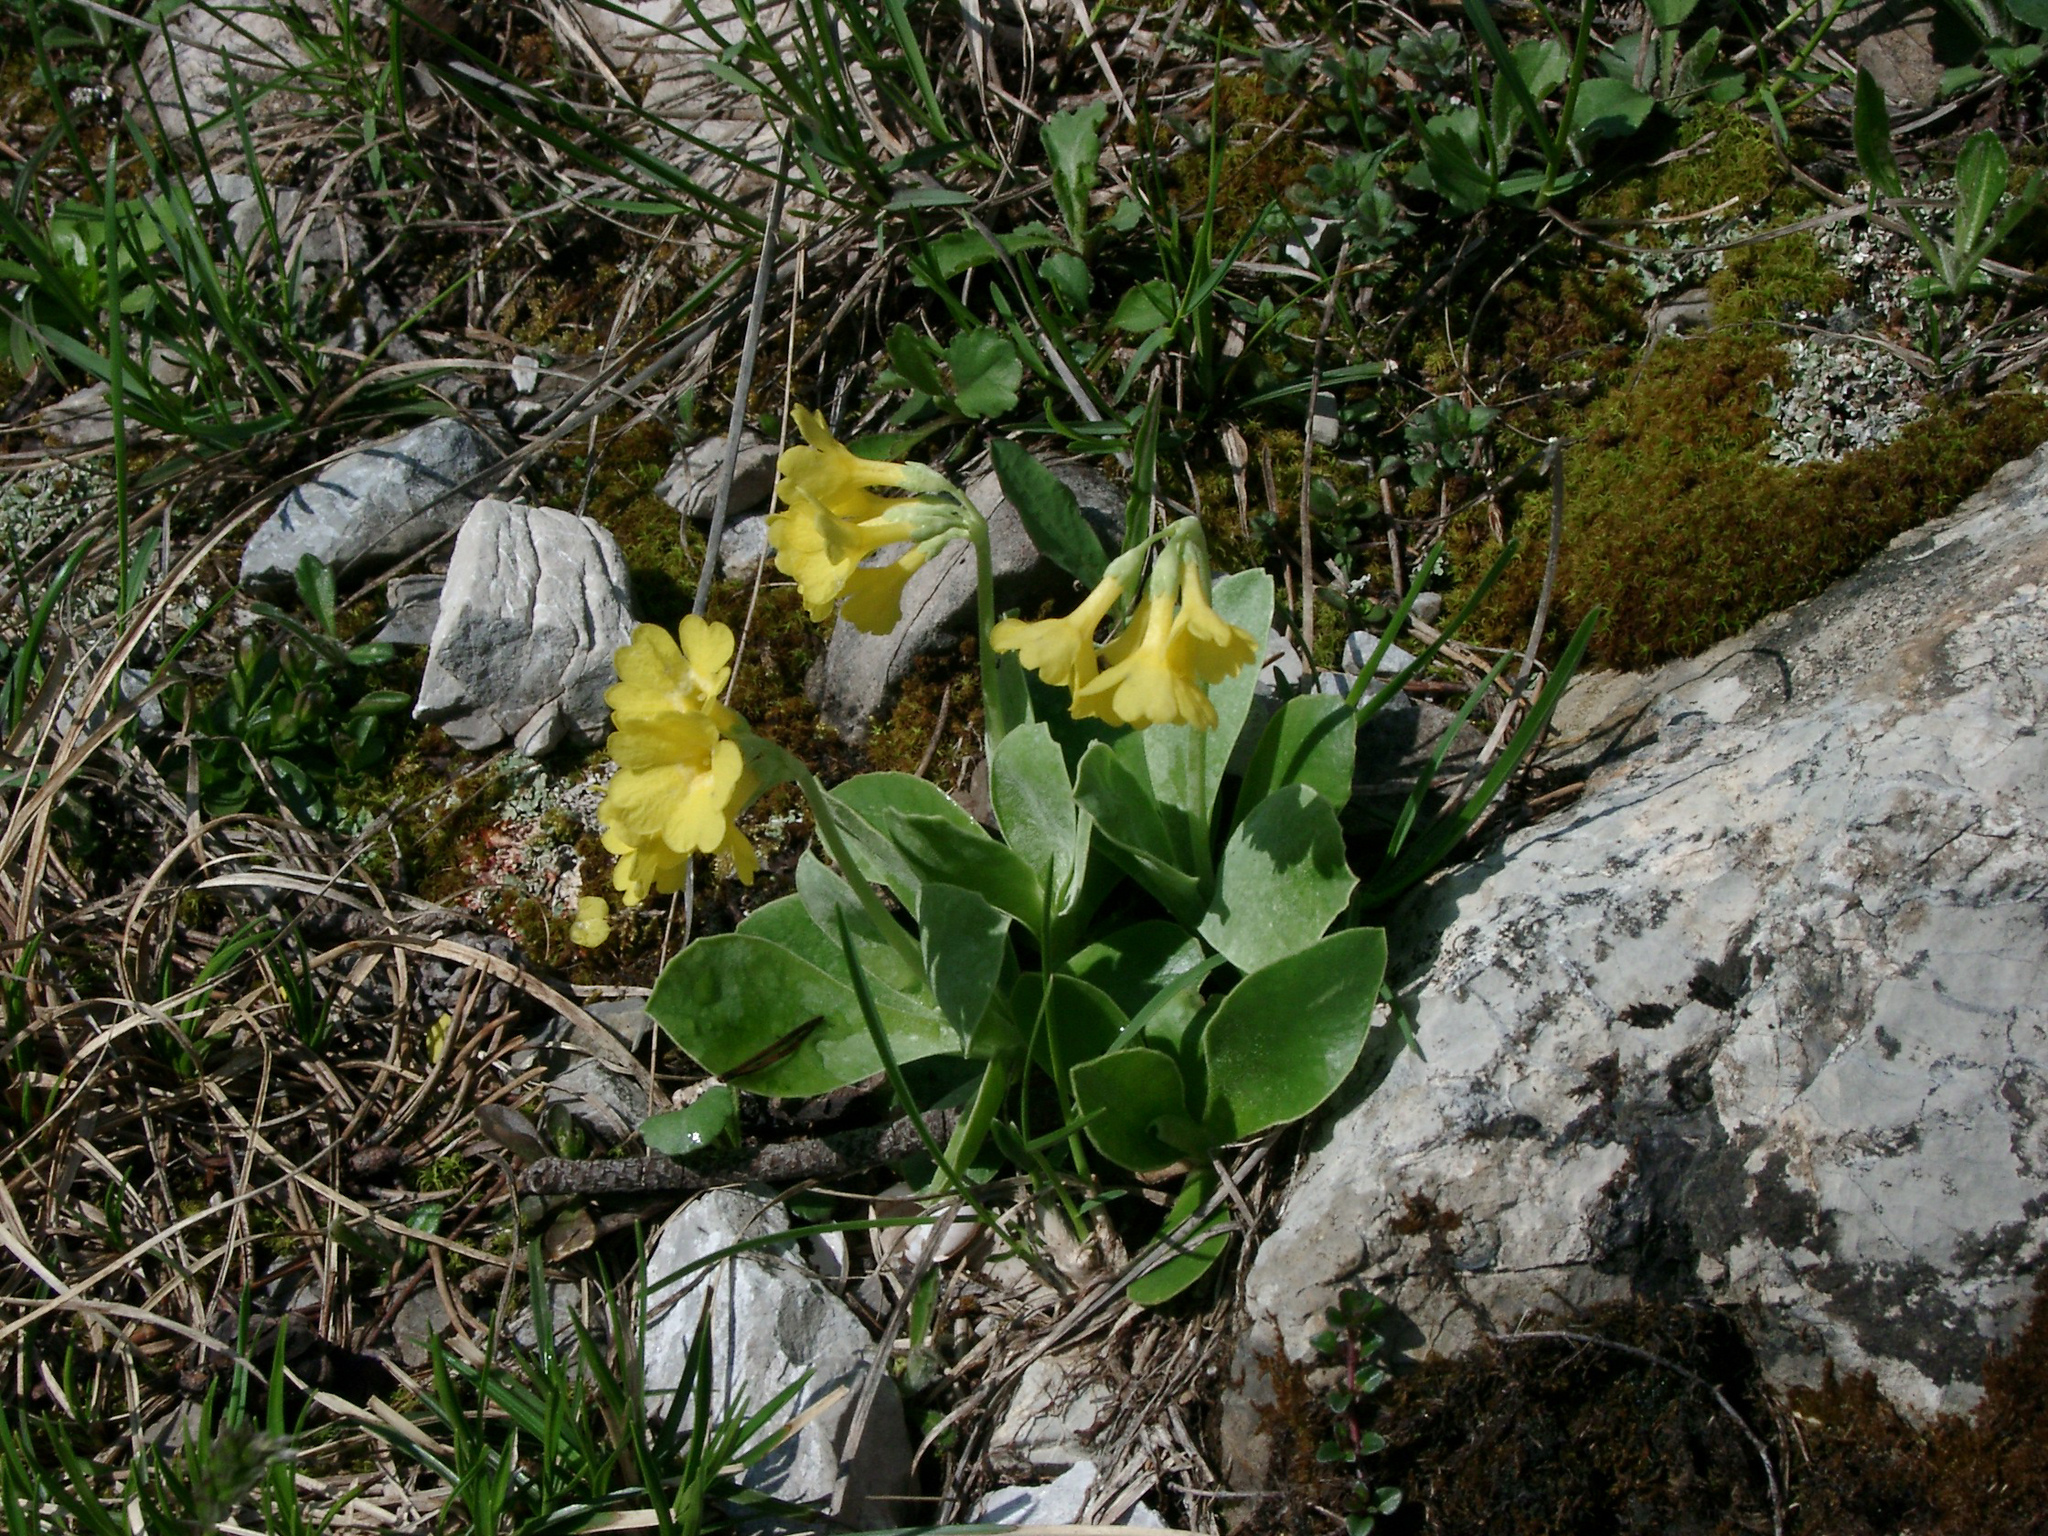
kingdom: Plantae
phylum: Tracheophyta
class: Magnoliopsida
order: Ericales
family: Primulaceae
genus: Primula
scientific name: Primula auricula
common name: Auricula
